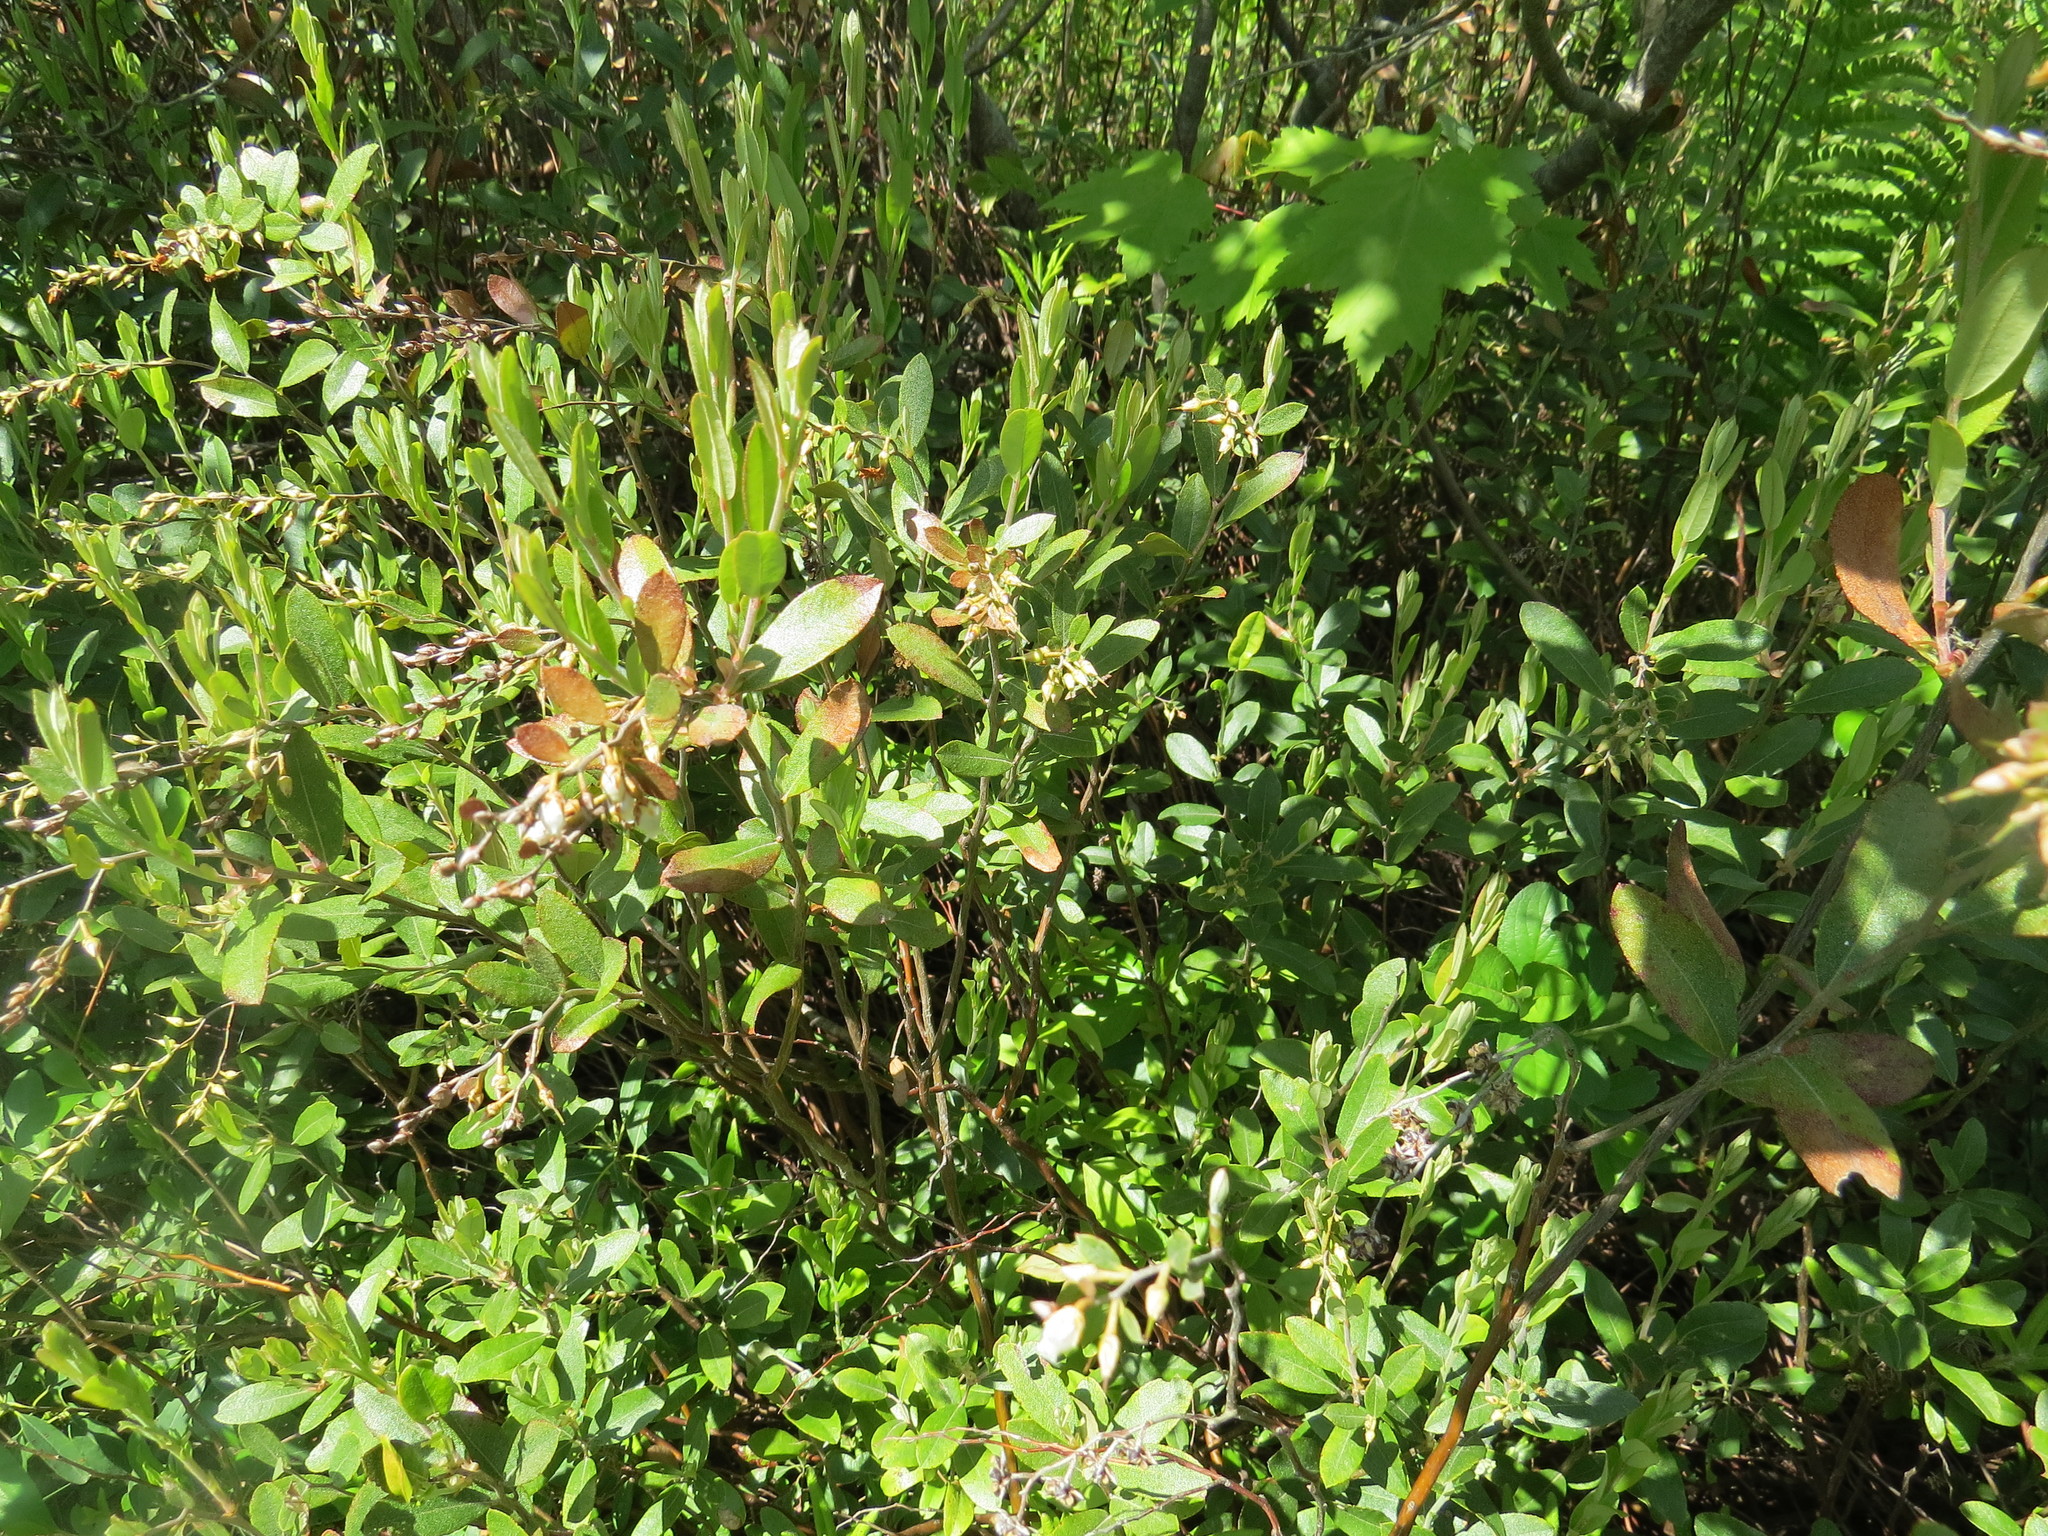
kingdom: Plantae
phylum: Tracheophyta
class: Magnoliopsida
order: Ericales
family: Ericaceae
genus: Chamaedaphne
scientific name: Chamaedaphne calyculata
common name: Leatherleaf
